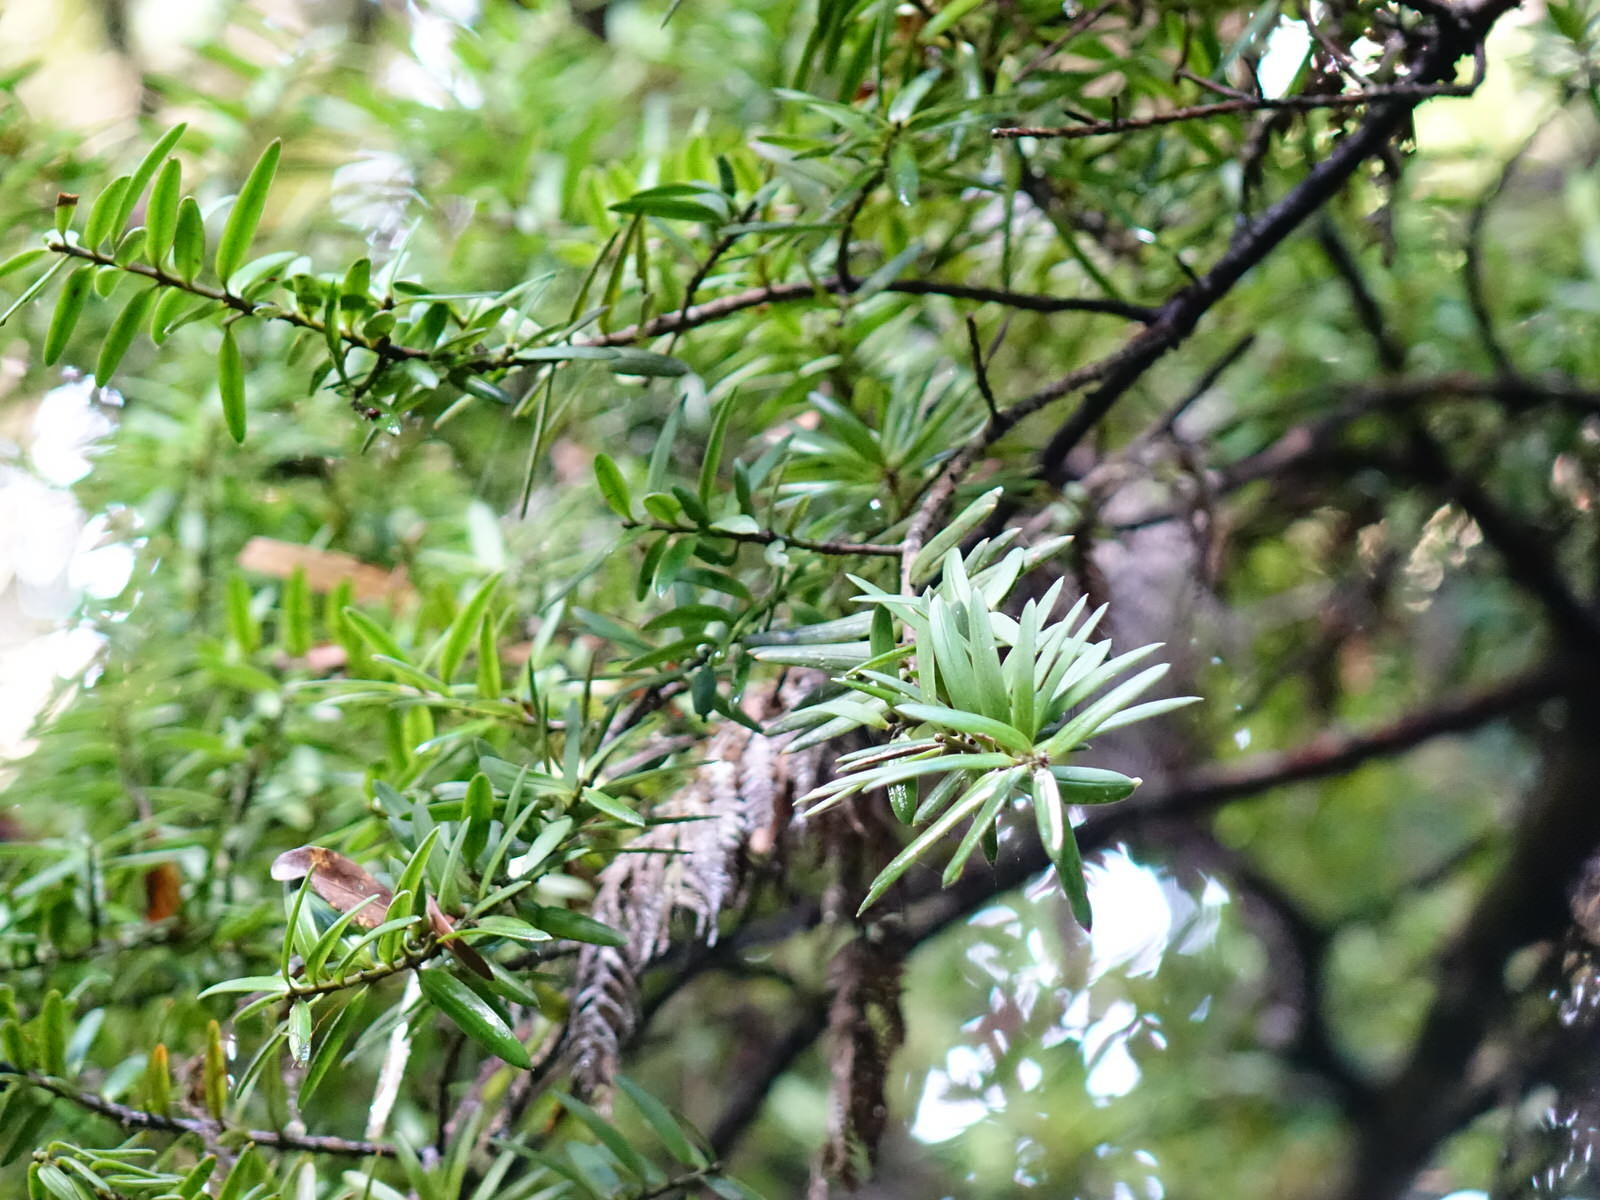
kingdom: Plantae
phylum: Tracheophyta
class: Pinopsida
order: Pinales
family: Podocarpaceae
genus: Podocarpus
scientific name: Podocarpus totara
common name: Totara
